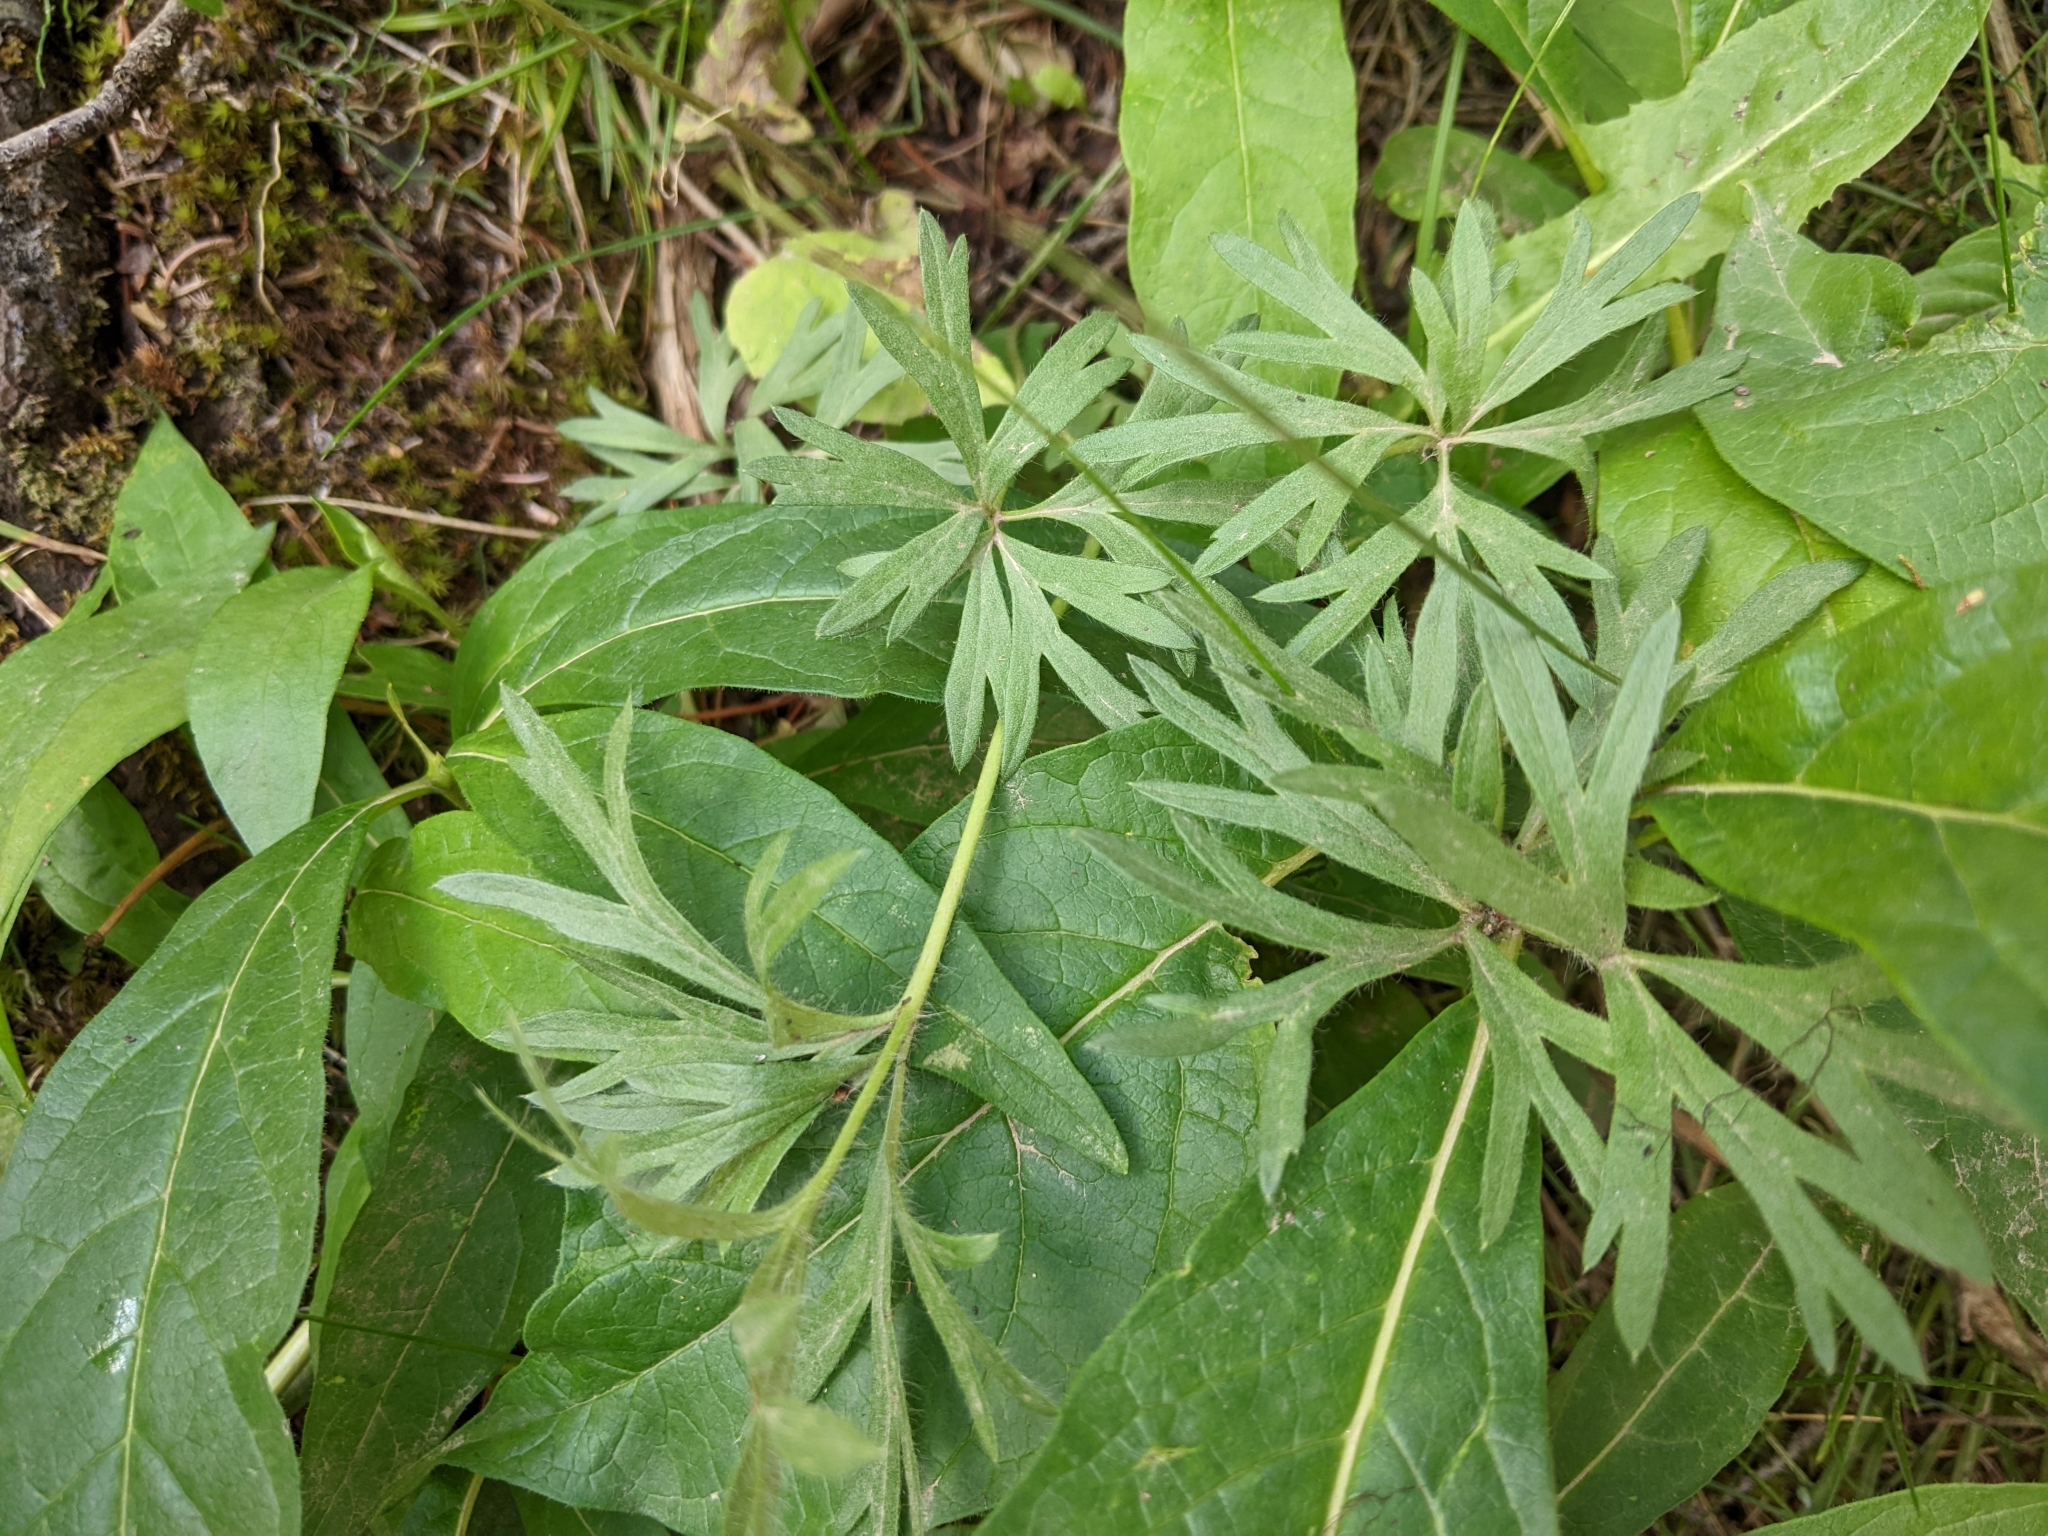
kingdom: Plantae
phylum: Tracheophyta
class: Magnoliopsida
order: Ranunculales
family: Ranunculaceae
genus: Anemone
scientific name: Anemone multifida
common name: Bird's-foot anemone
